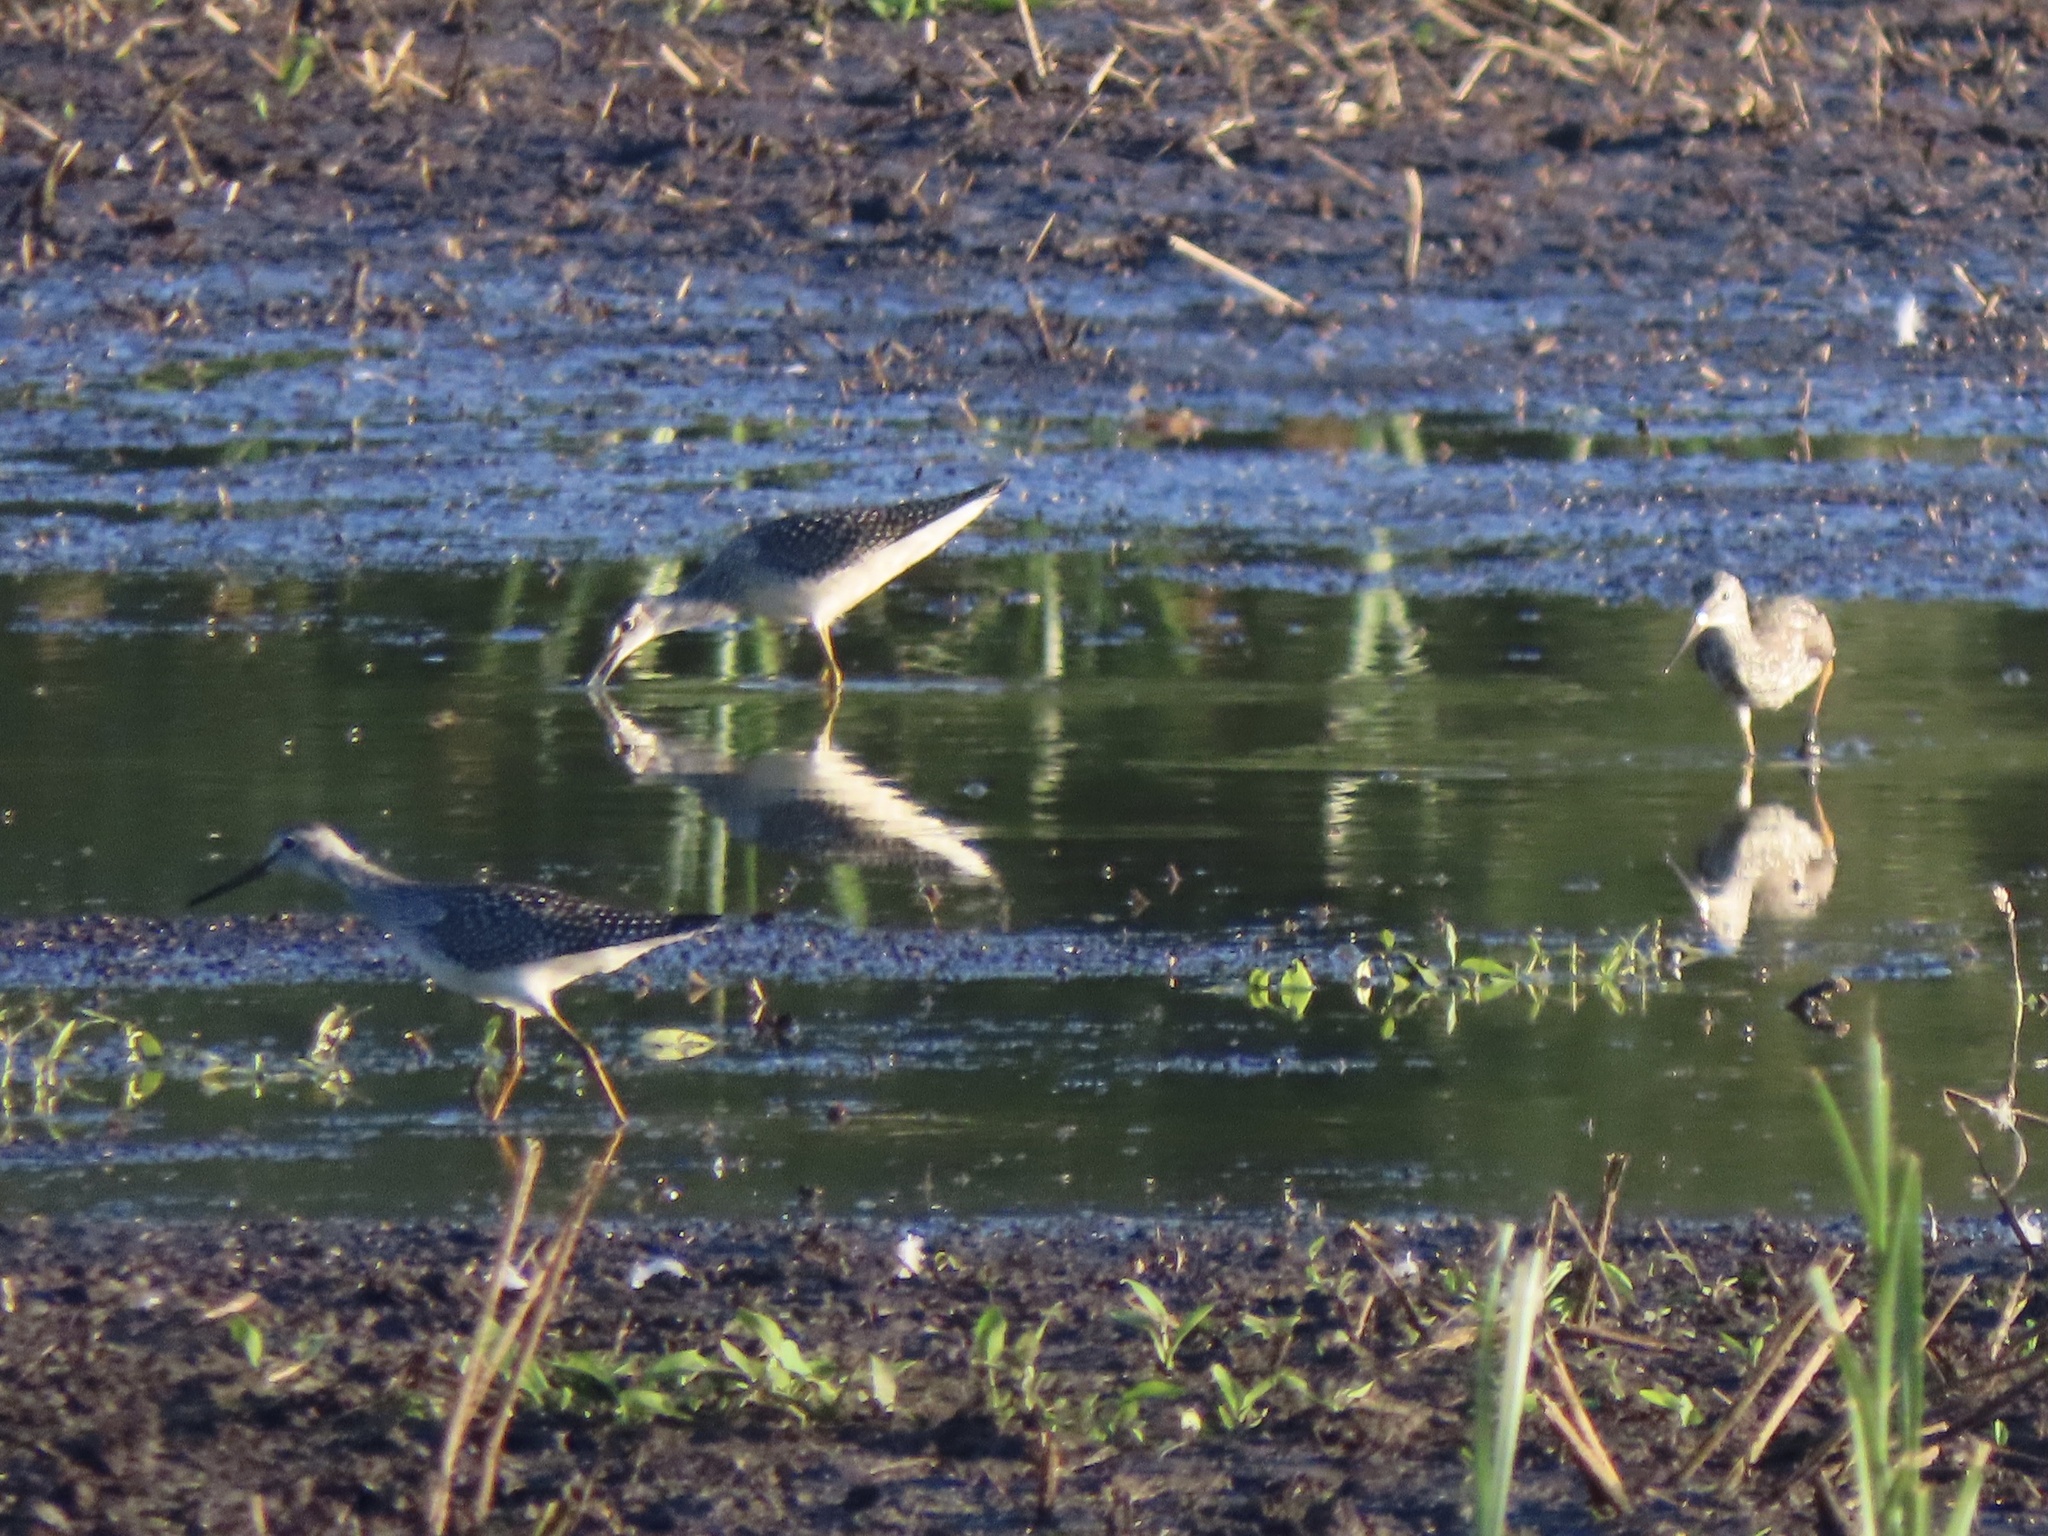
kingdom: Animalia
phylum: Chordata
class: Aves
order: Charadriiformes
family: Scolopacidae
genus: Tringa
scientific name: Tringa melanoleuca
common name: Greater yellowlegs
